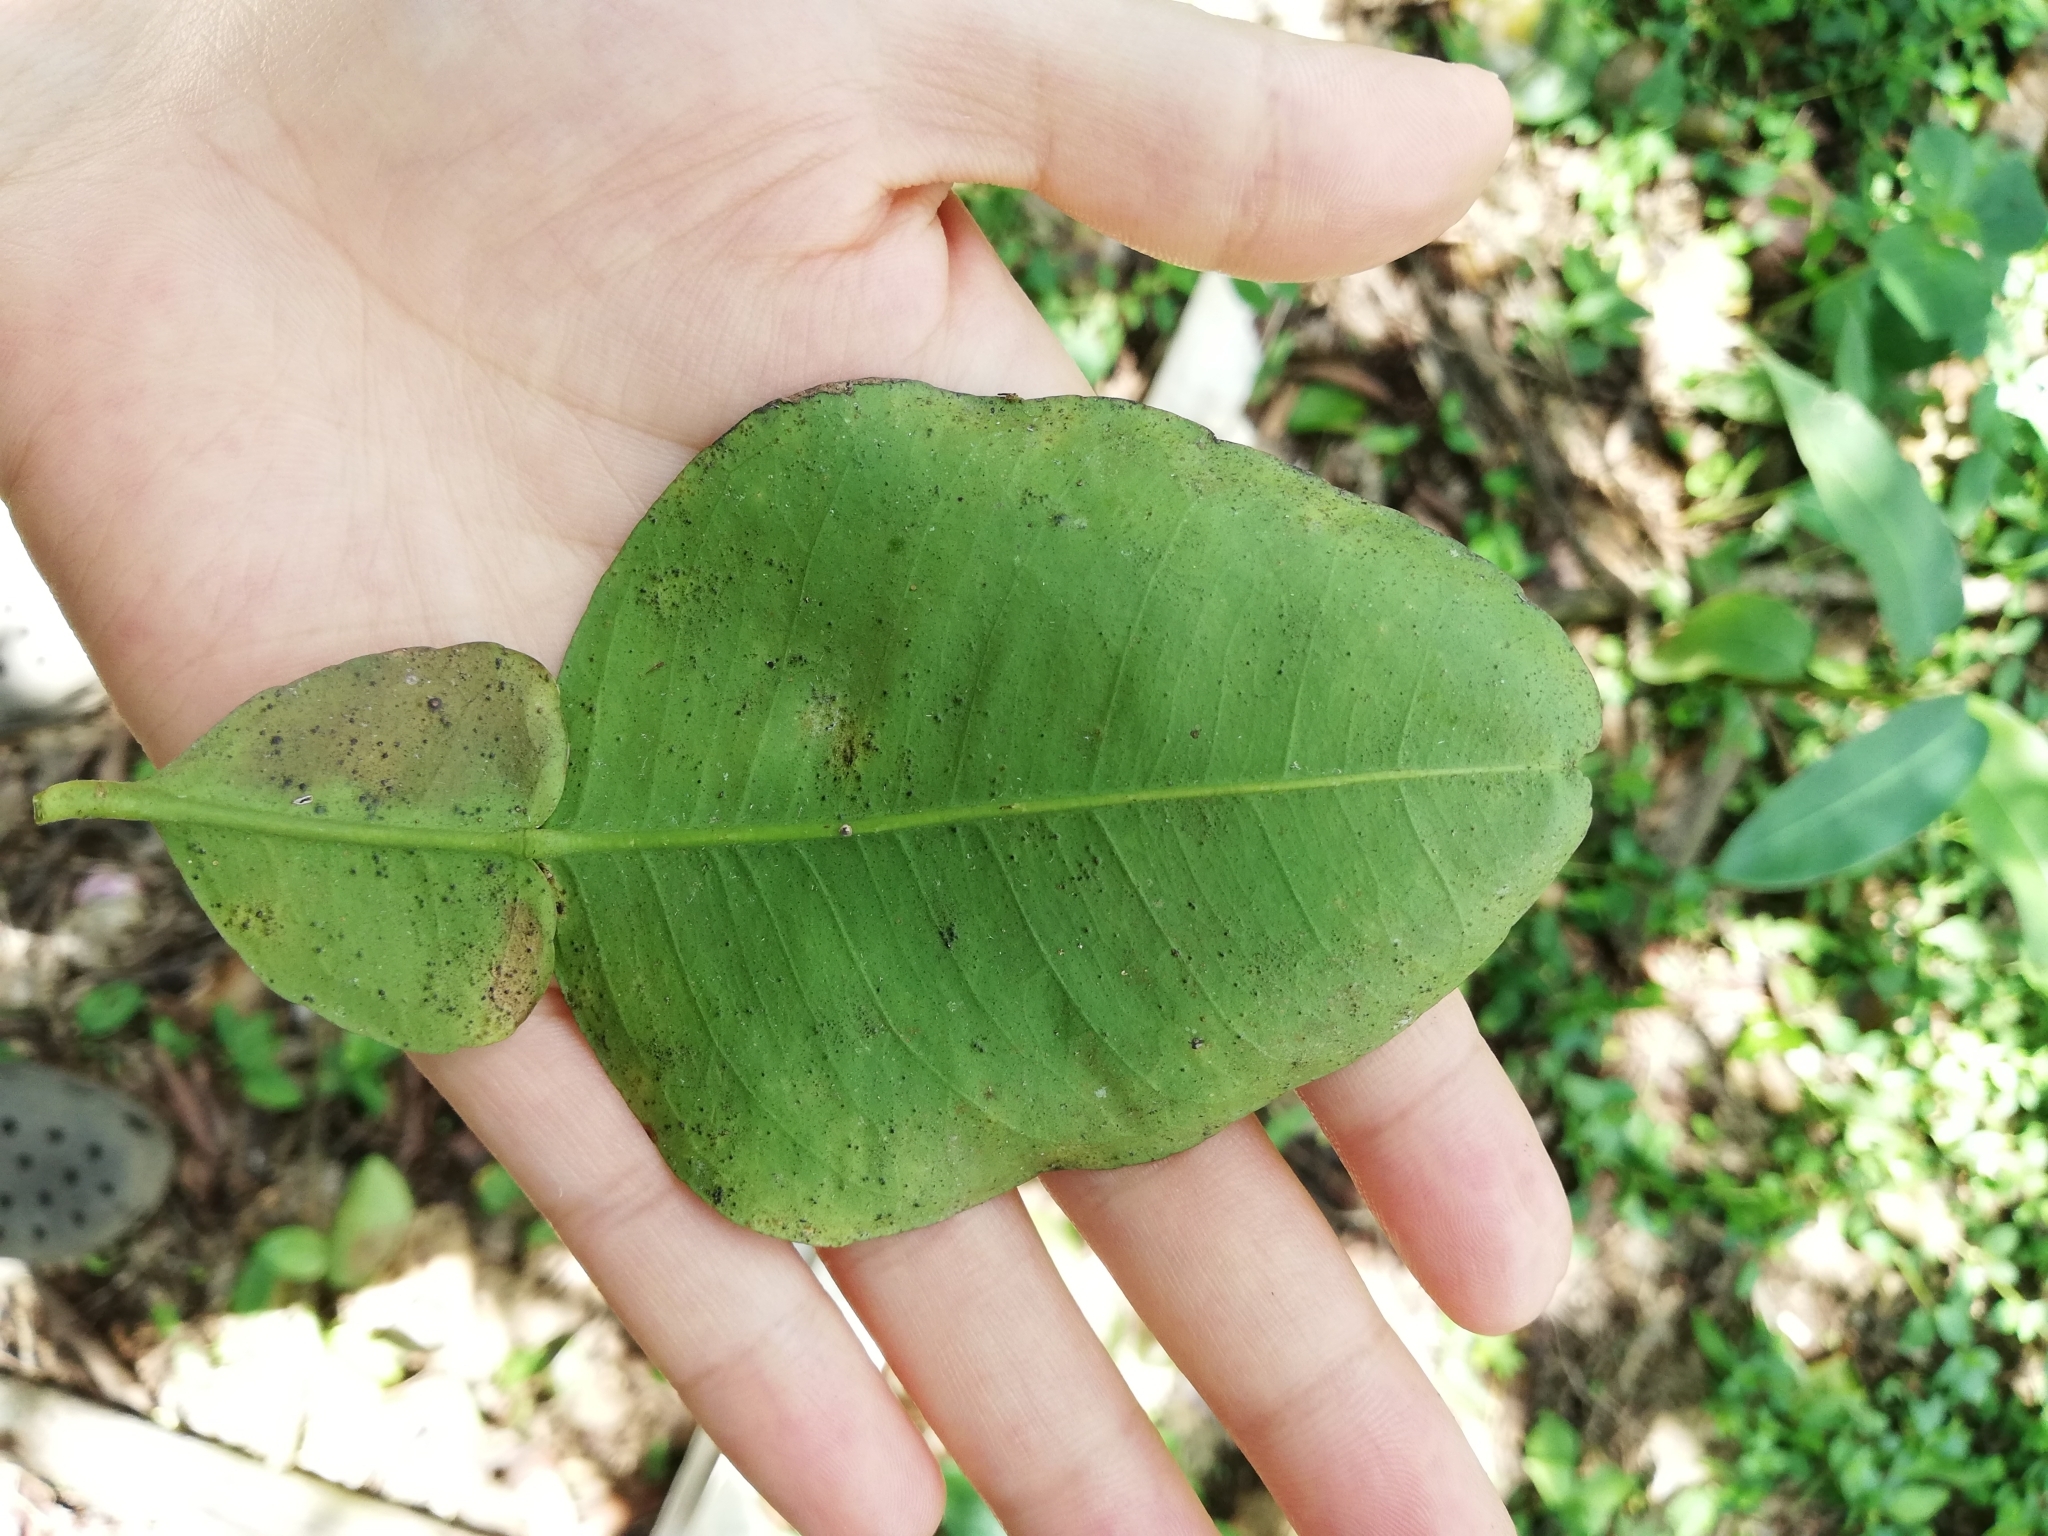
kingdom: Plantae
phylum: Tracheophyta
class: Magnoliopsida
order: Sapindales
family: Rutaceae
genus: Citrus
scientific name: Citrus aurantium
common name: Sour orange
